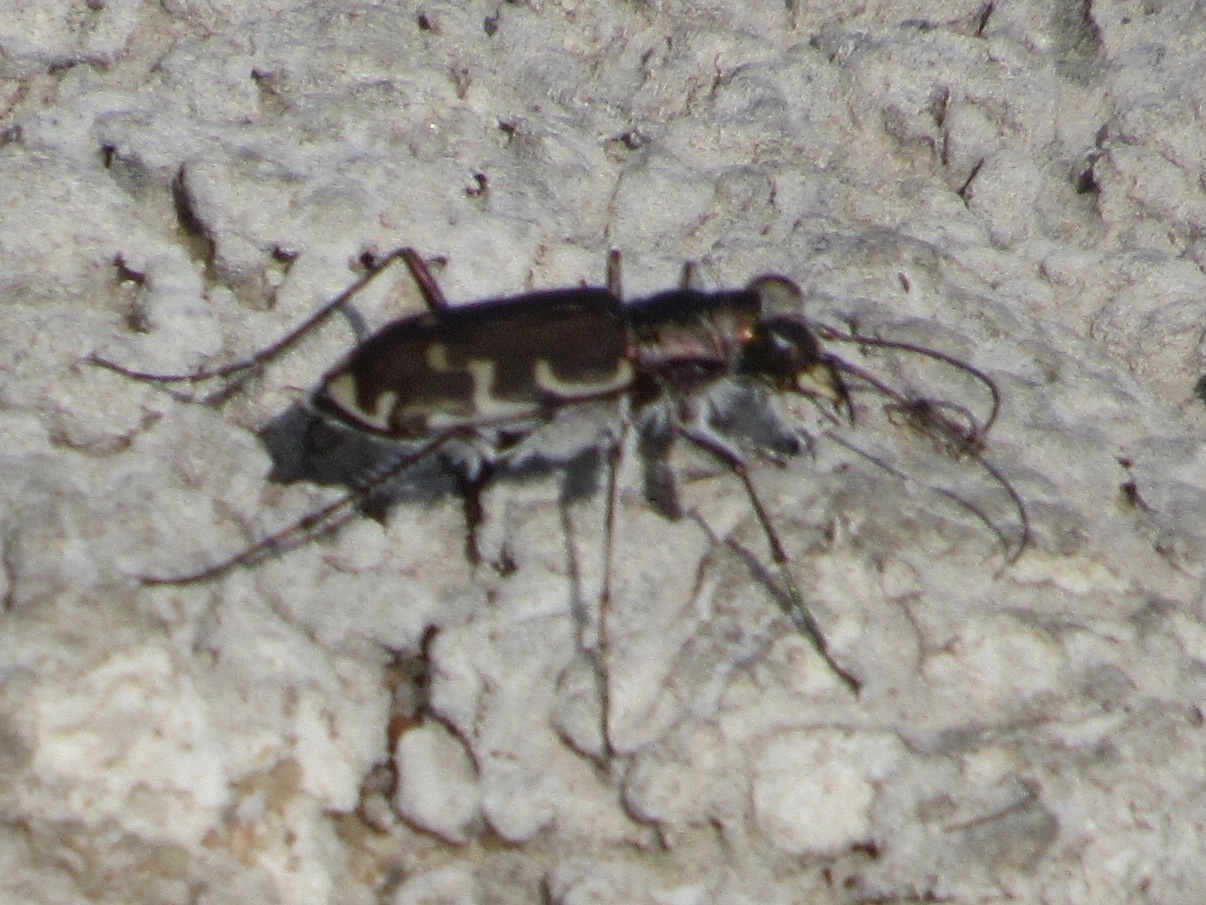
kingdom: Animalia
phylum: Arthropoda
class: Insecta
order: Coleoptera
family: Carabidae
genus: Cicindela
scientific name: Cicindela repanda
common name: Bronzed tiger beetle
